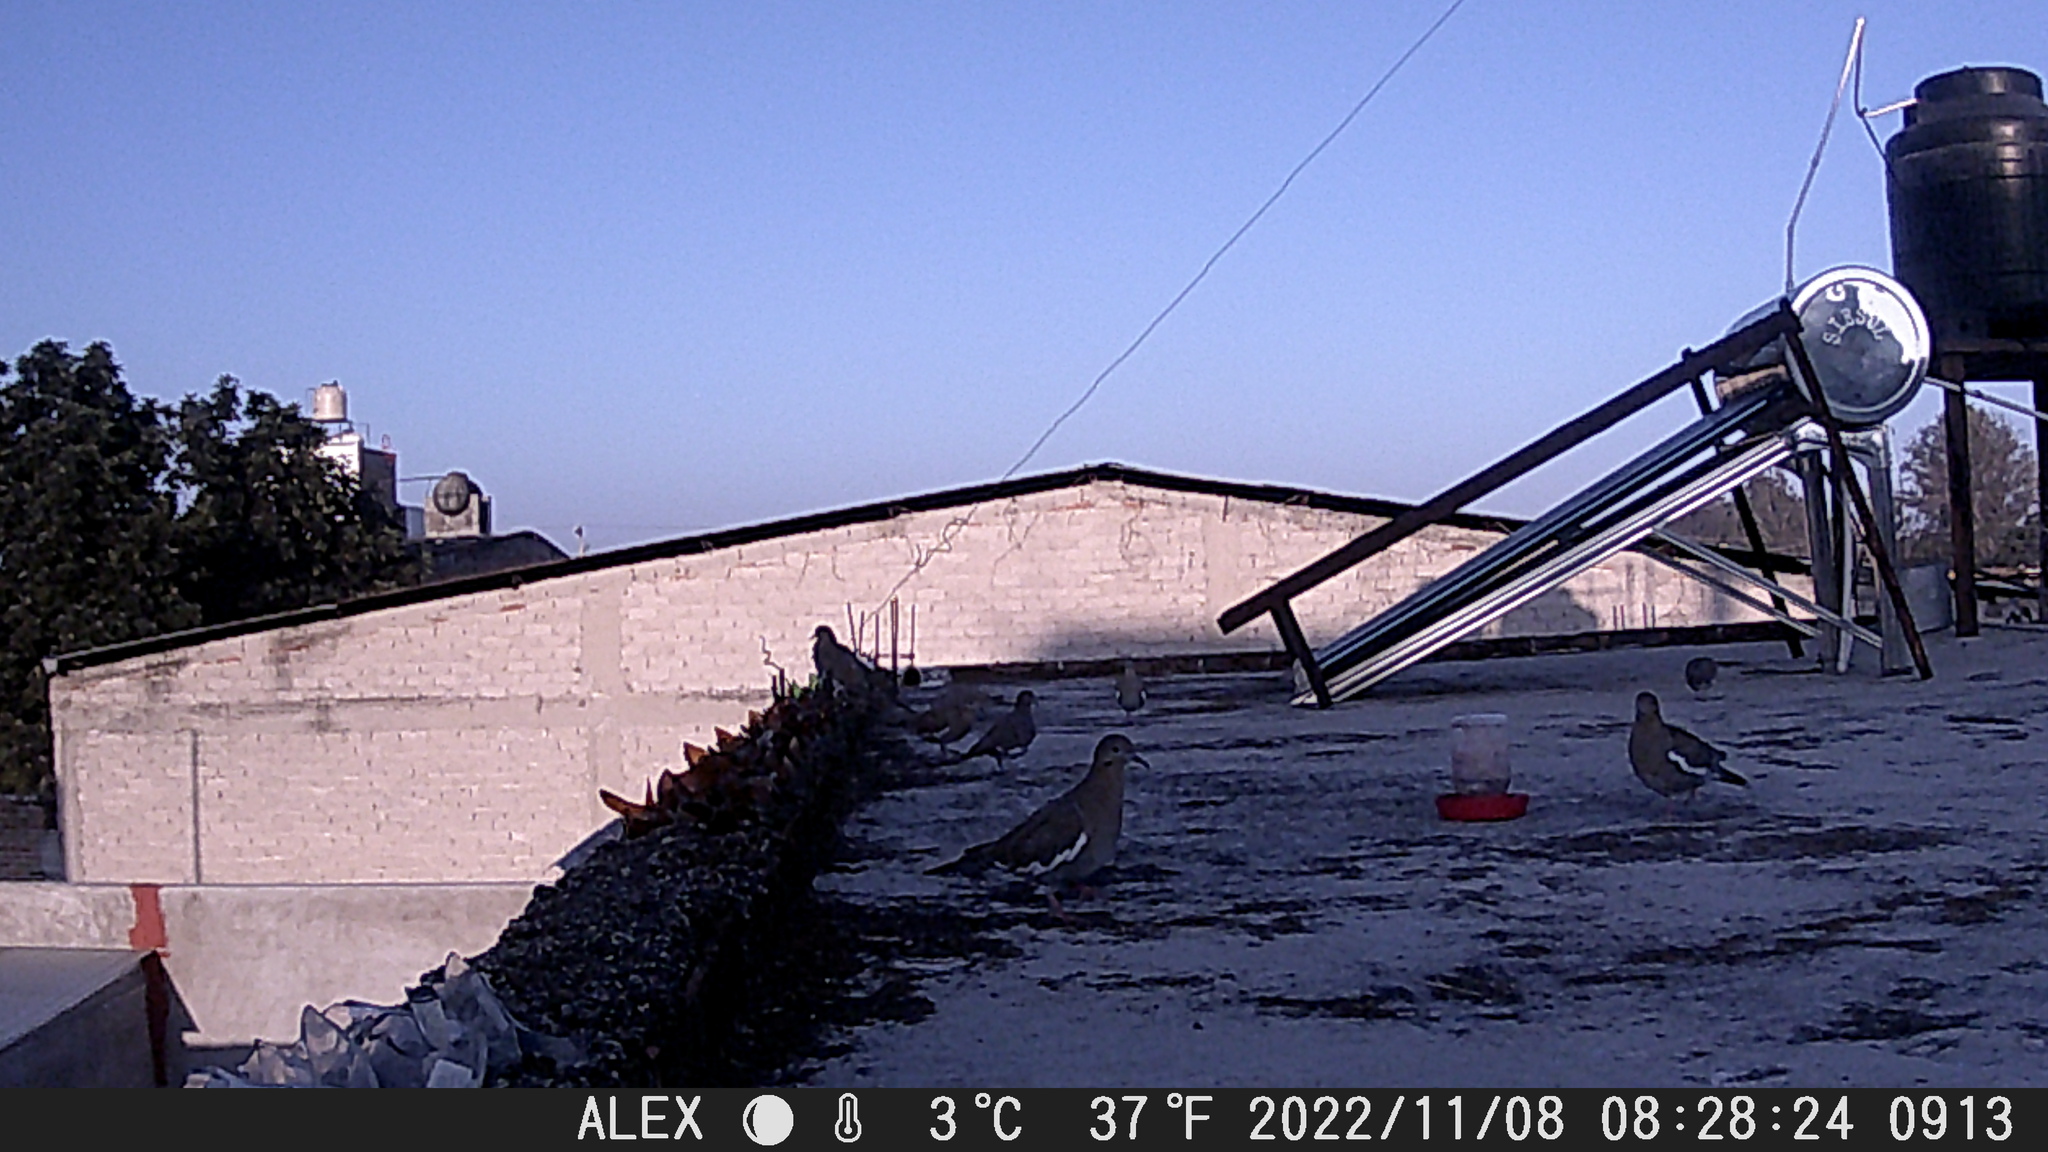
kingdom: Animalia
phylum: Chordata
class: Aves
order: Columbiformes
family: Columbidae
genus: Zenaida
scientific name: Zenaida asiatica
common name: White-winged dove
